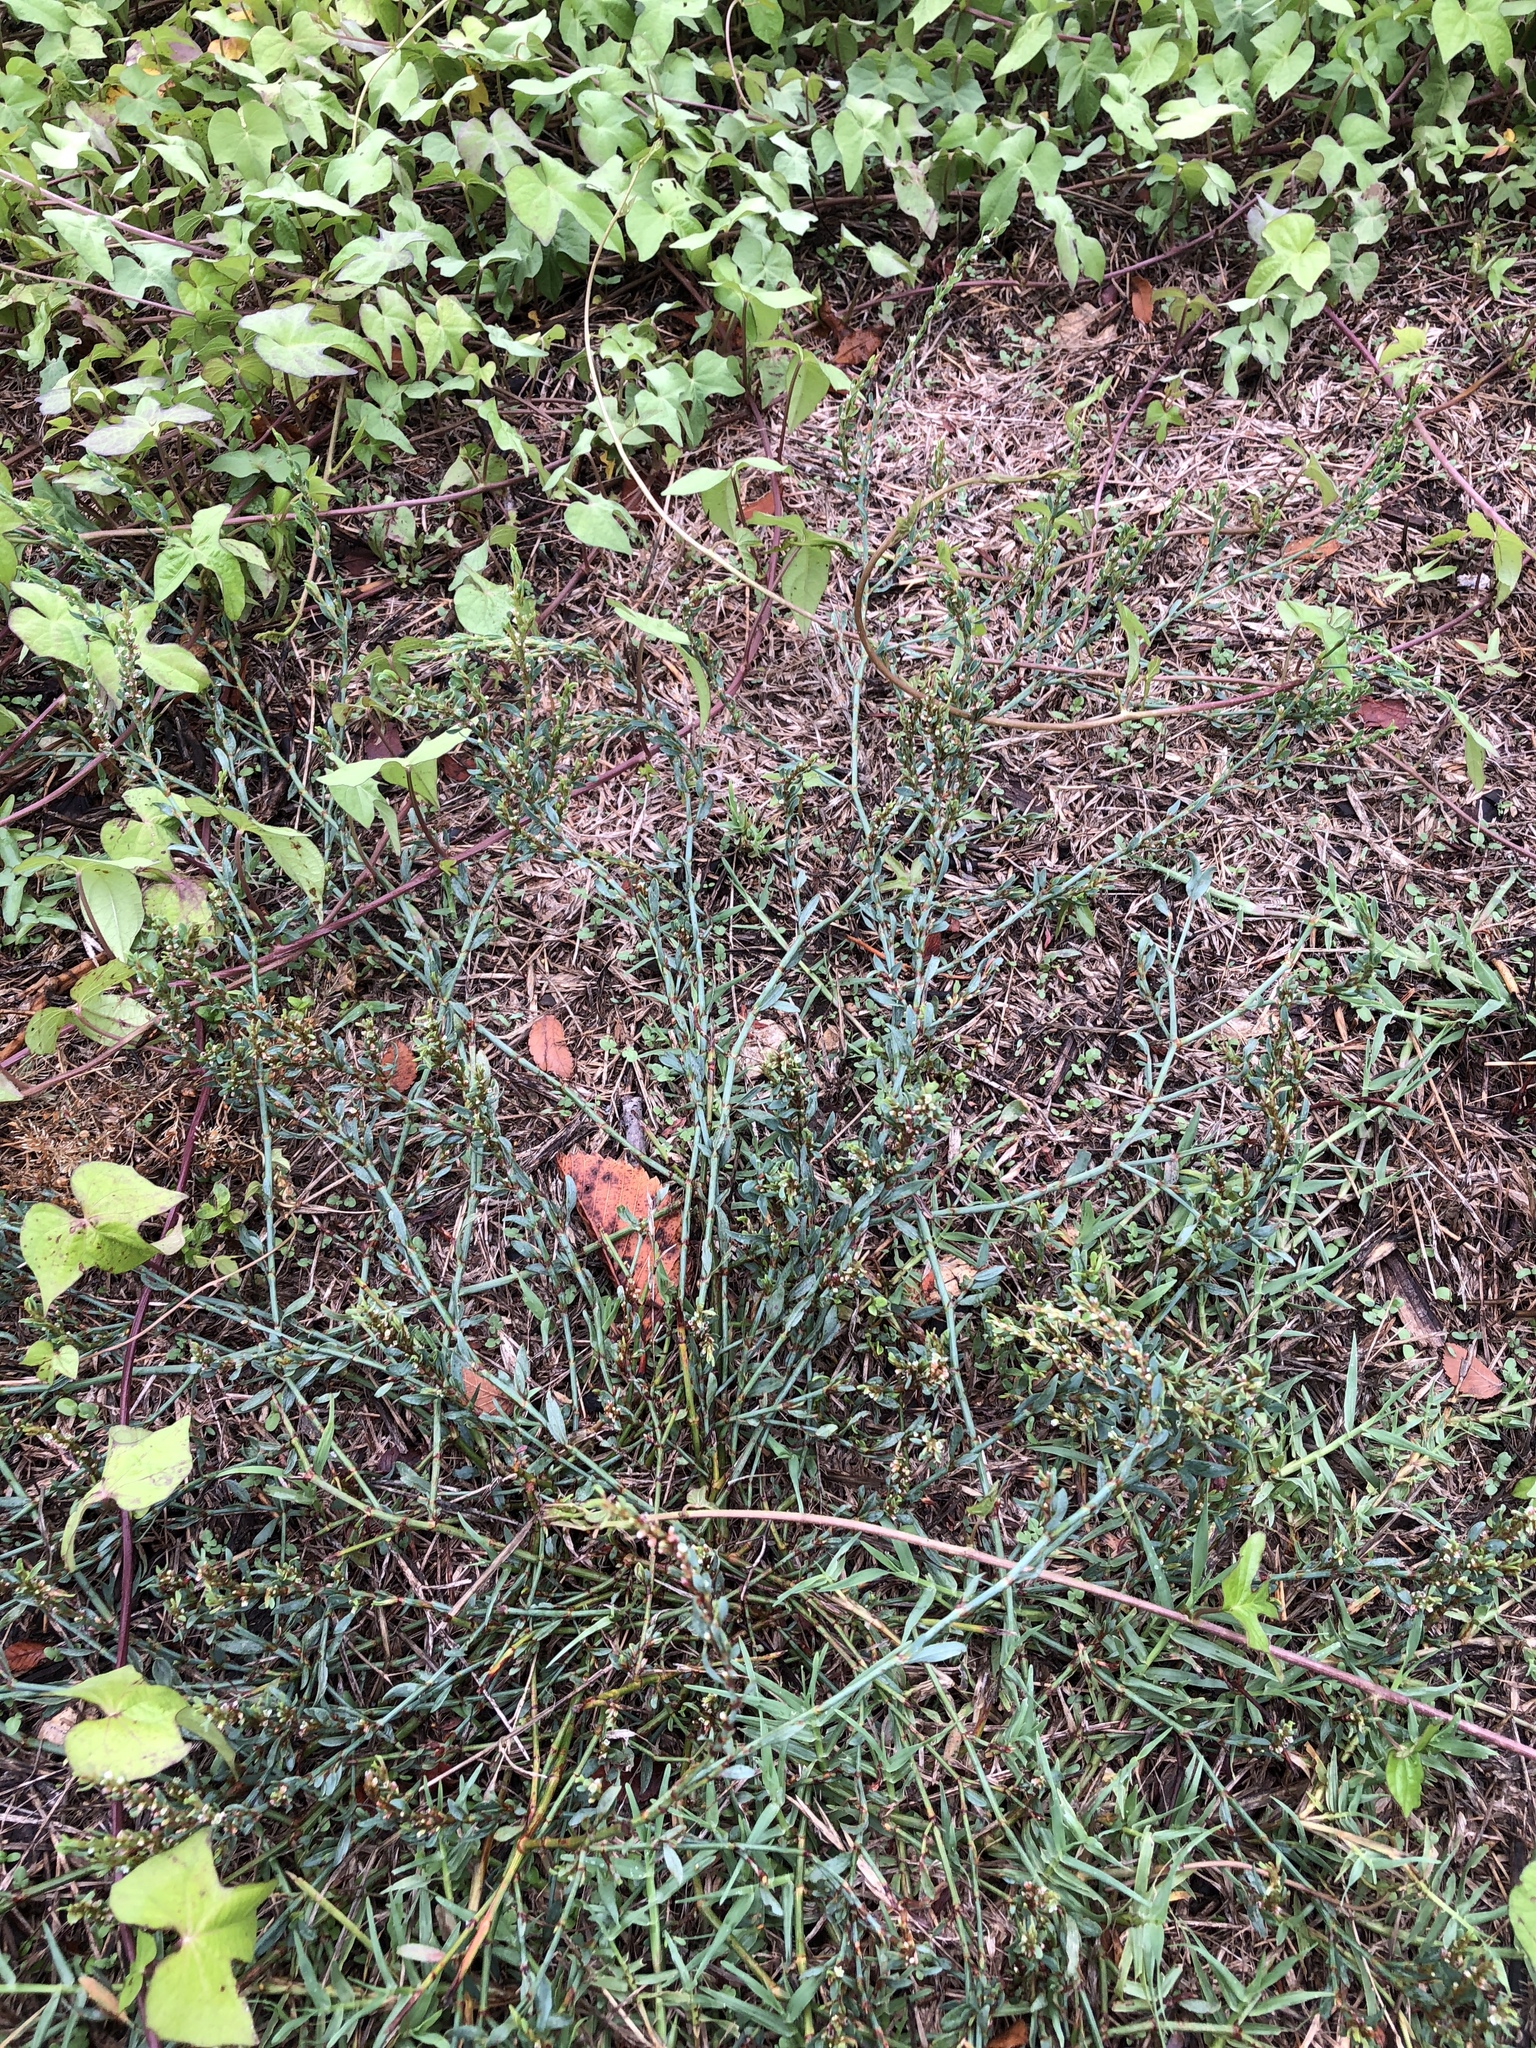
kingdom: Plantae
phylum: Tracheophyta
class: Magnoliopsida
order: Caryophyllales
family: Polygonaceae
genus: Polygonum
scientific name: Polygonum aviculare
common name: Prostrate knotweed
